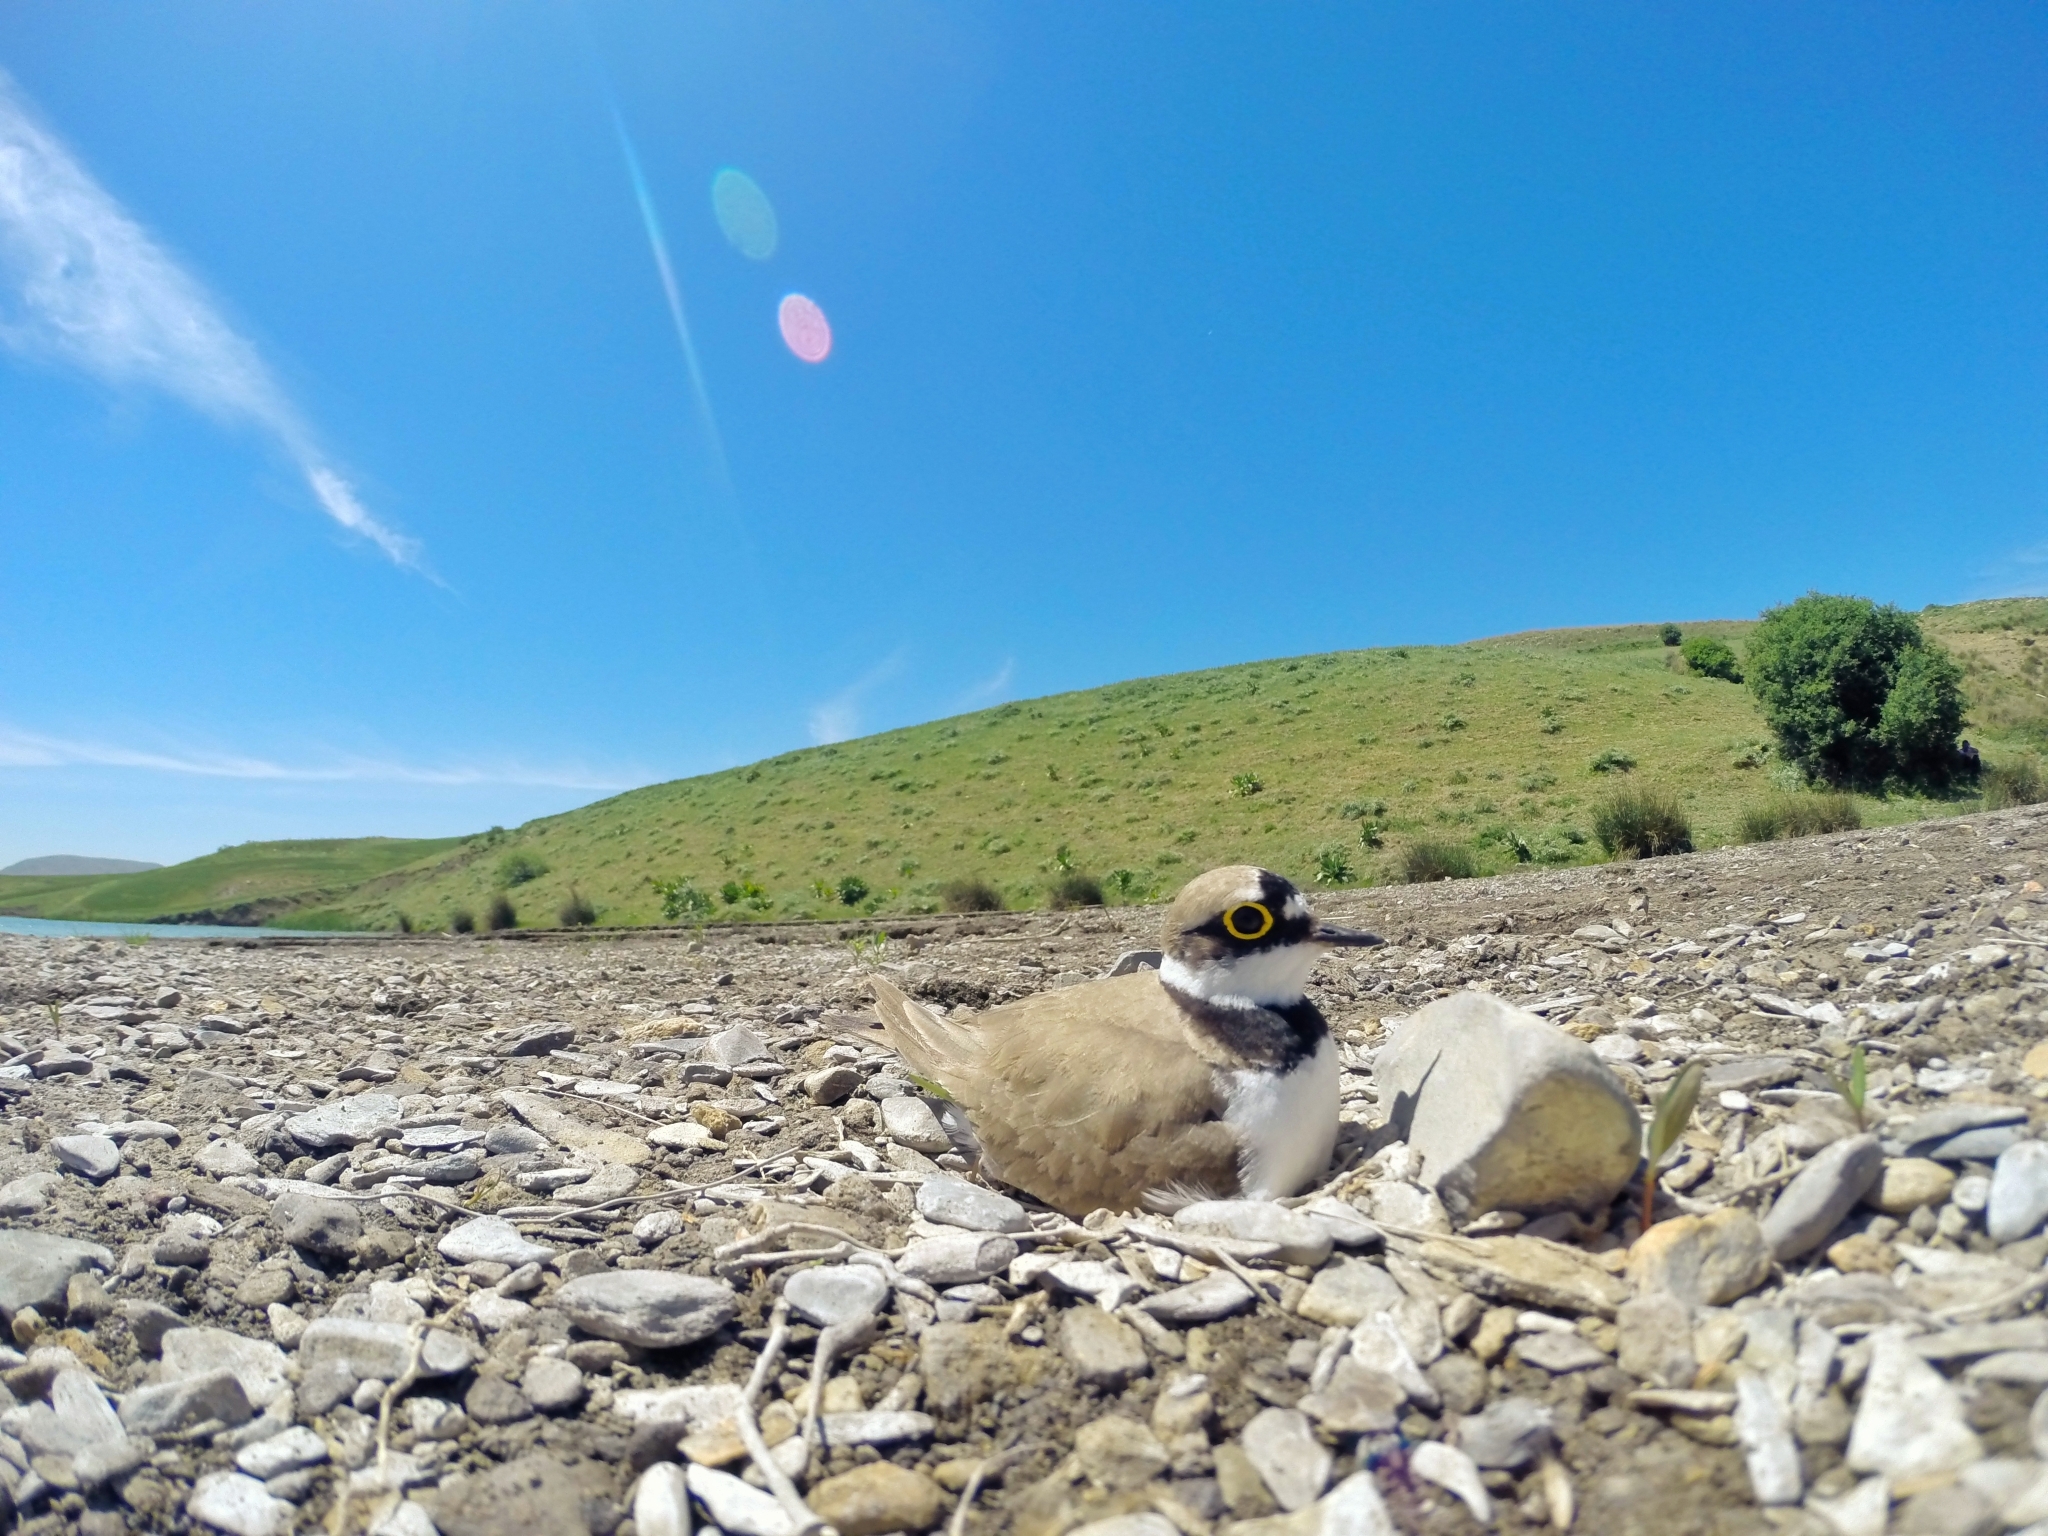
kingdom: Animalia
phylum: Chordata
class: Aves
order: Charadriiformes
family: Charadriidae
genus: Charadrius
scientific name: Charadrius dubius
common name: Little ringed plover
